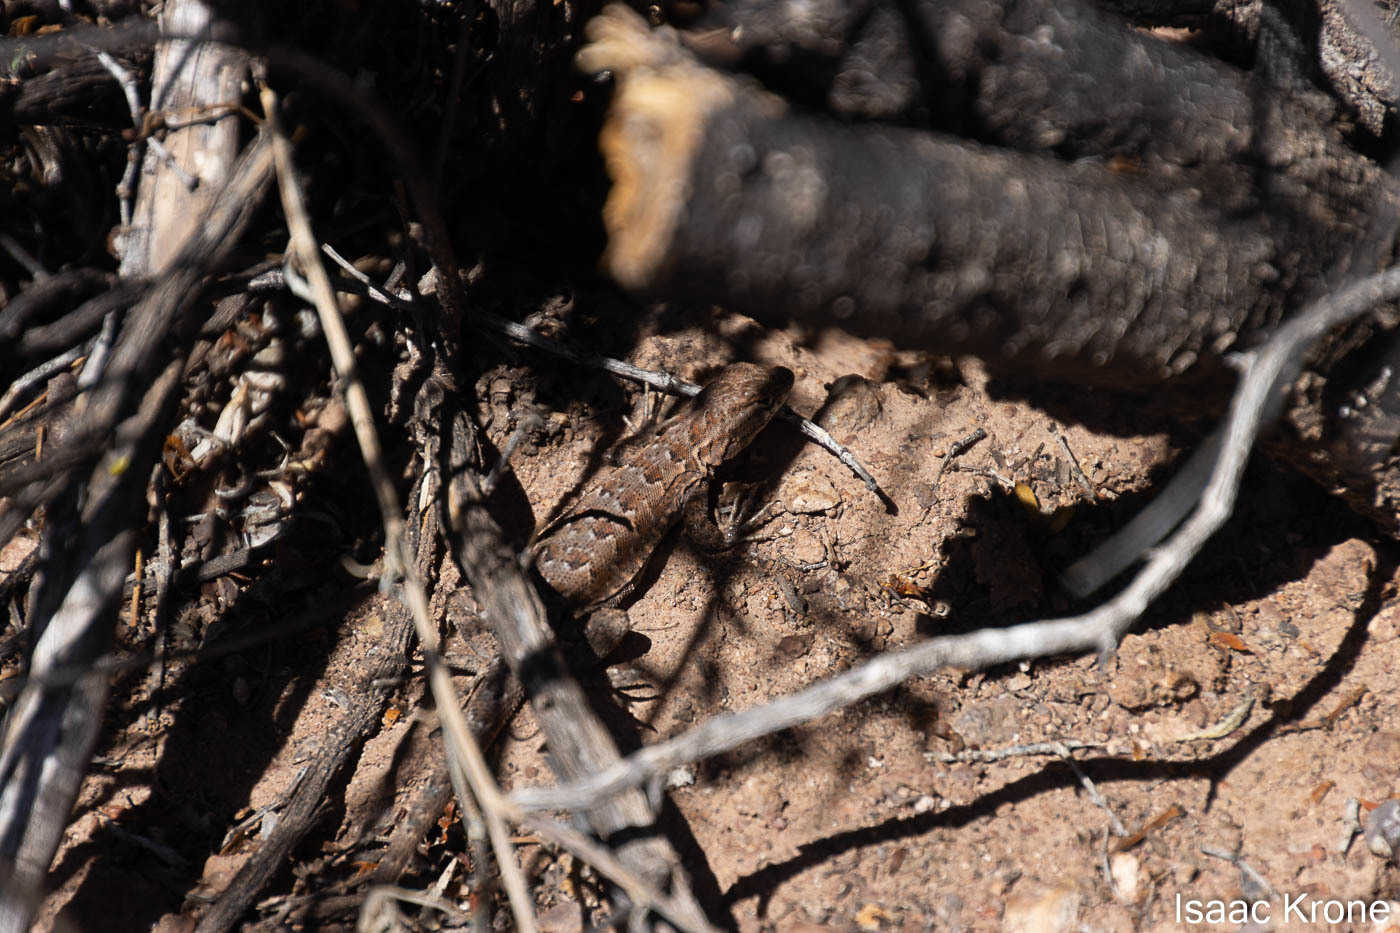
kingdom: Animalia
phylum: Chordata
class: Squamata
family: Phrynosomatidae
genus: Uta
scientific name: Uta stansburiana
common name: Side-blotched lizard
